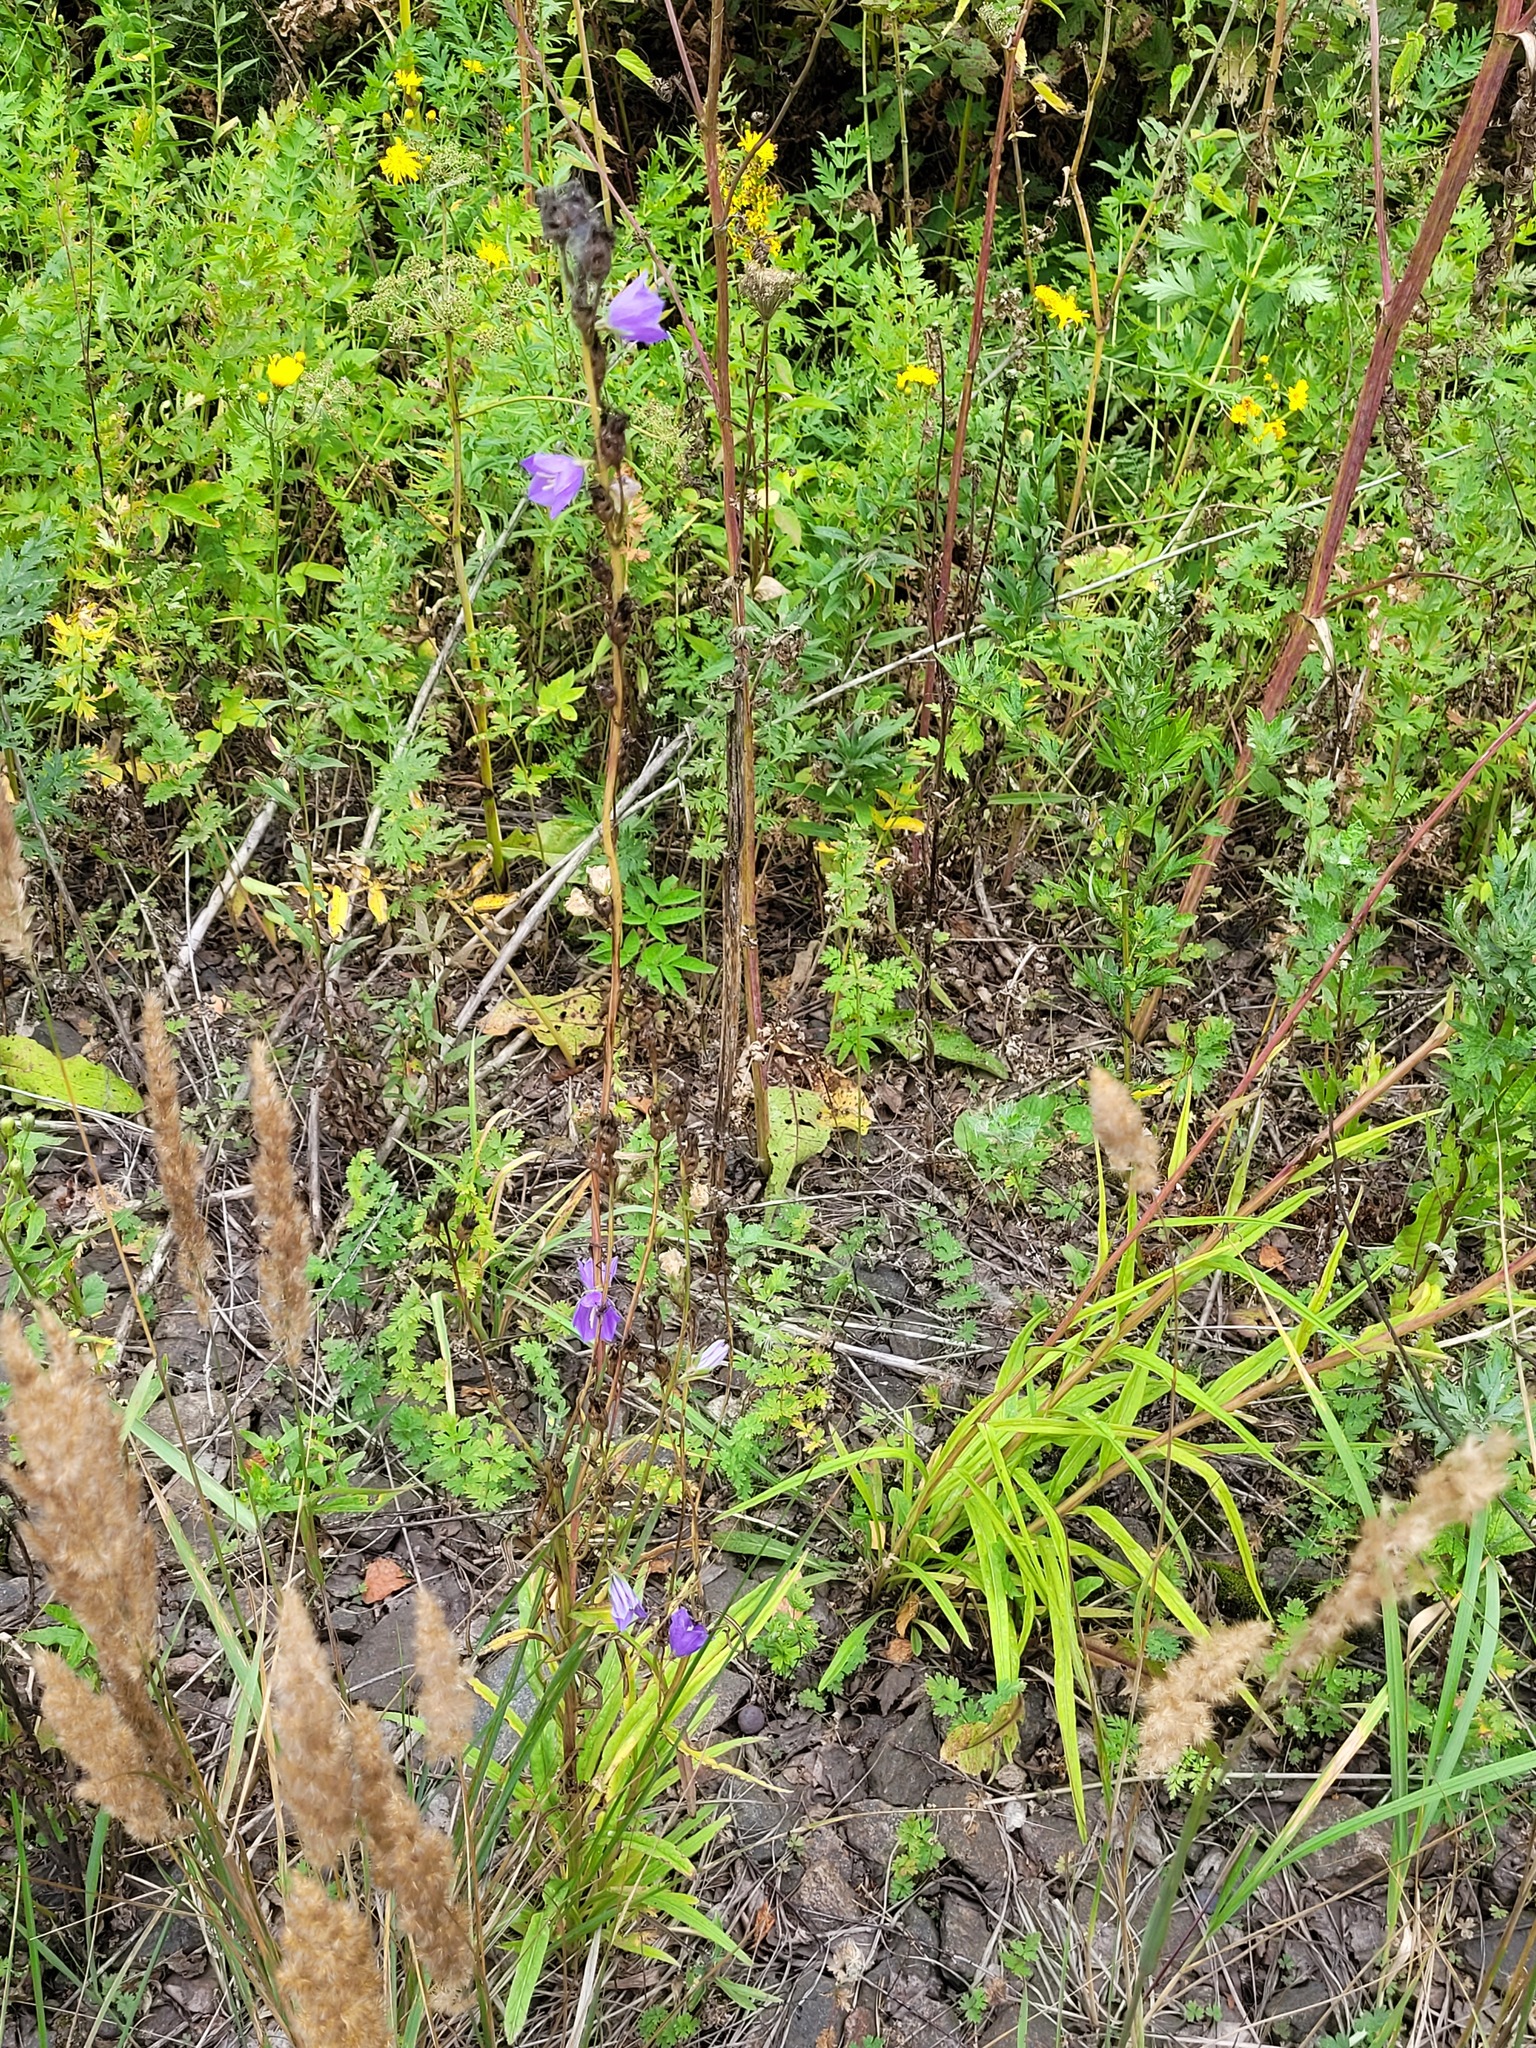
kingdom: Plantae
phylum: Tracheophyta
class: Magnoliopsida
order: Asterales
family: Campanulaceae
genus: Campanula
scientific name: Campanula persicifolia
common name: Peach-leaved bellflower
